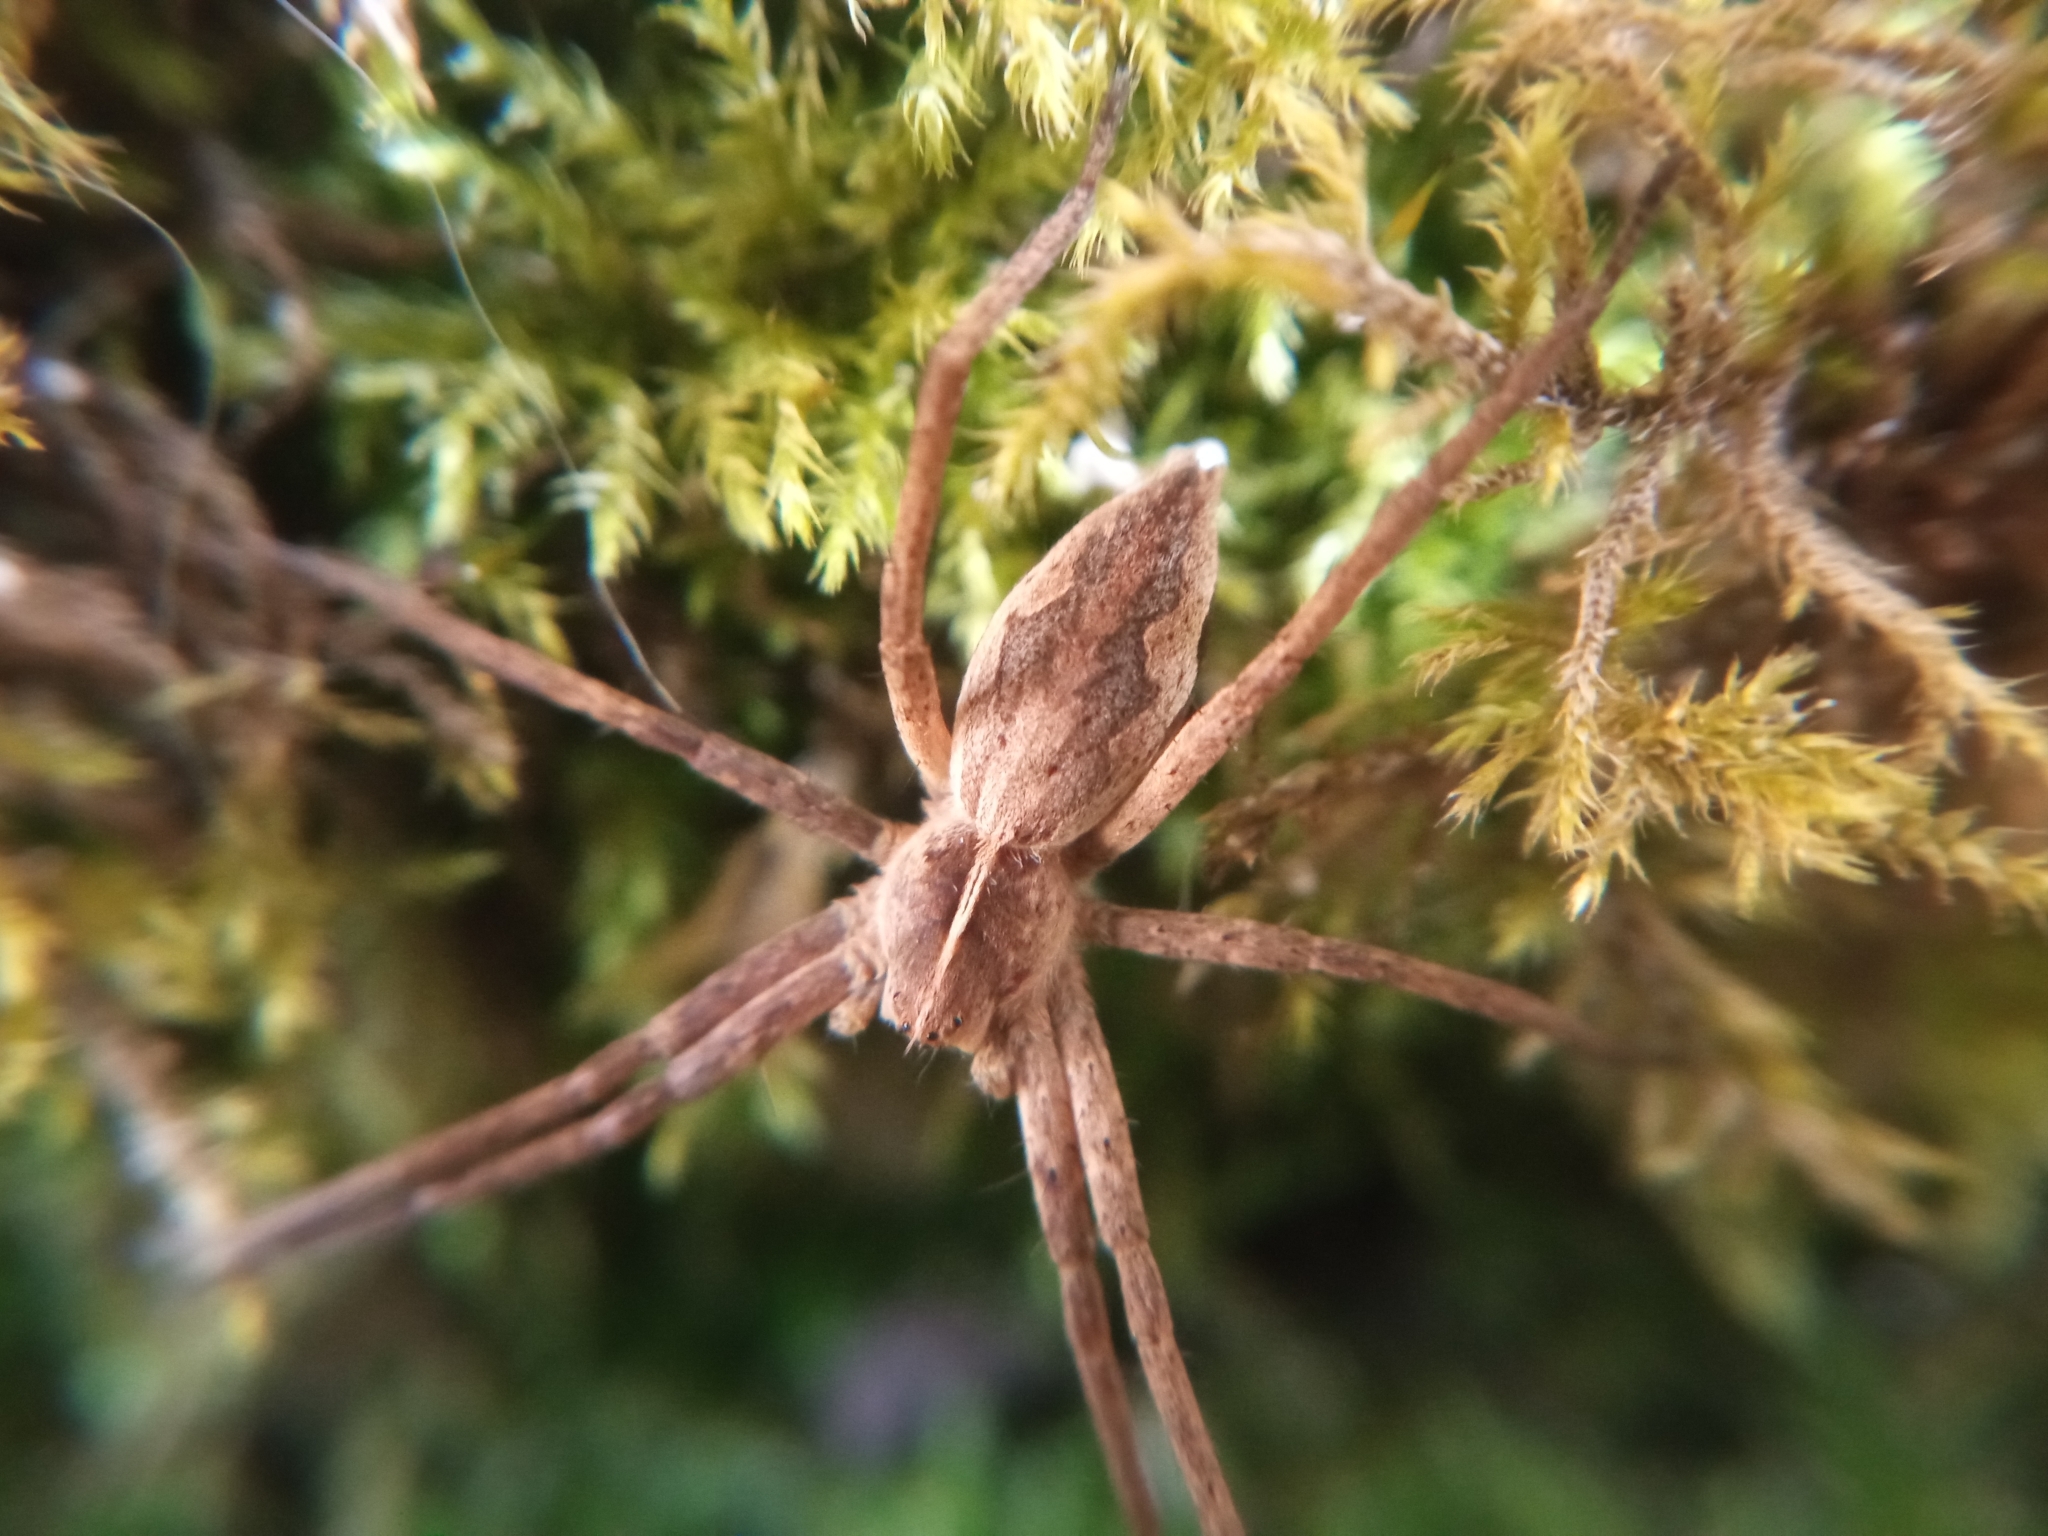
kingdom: Animalia
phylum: Arthropoda
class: Arachnida
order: Araneae
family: Pisauridae
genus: Pisaura
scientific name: Pisaura mirabilis
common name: Tent spider
